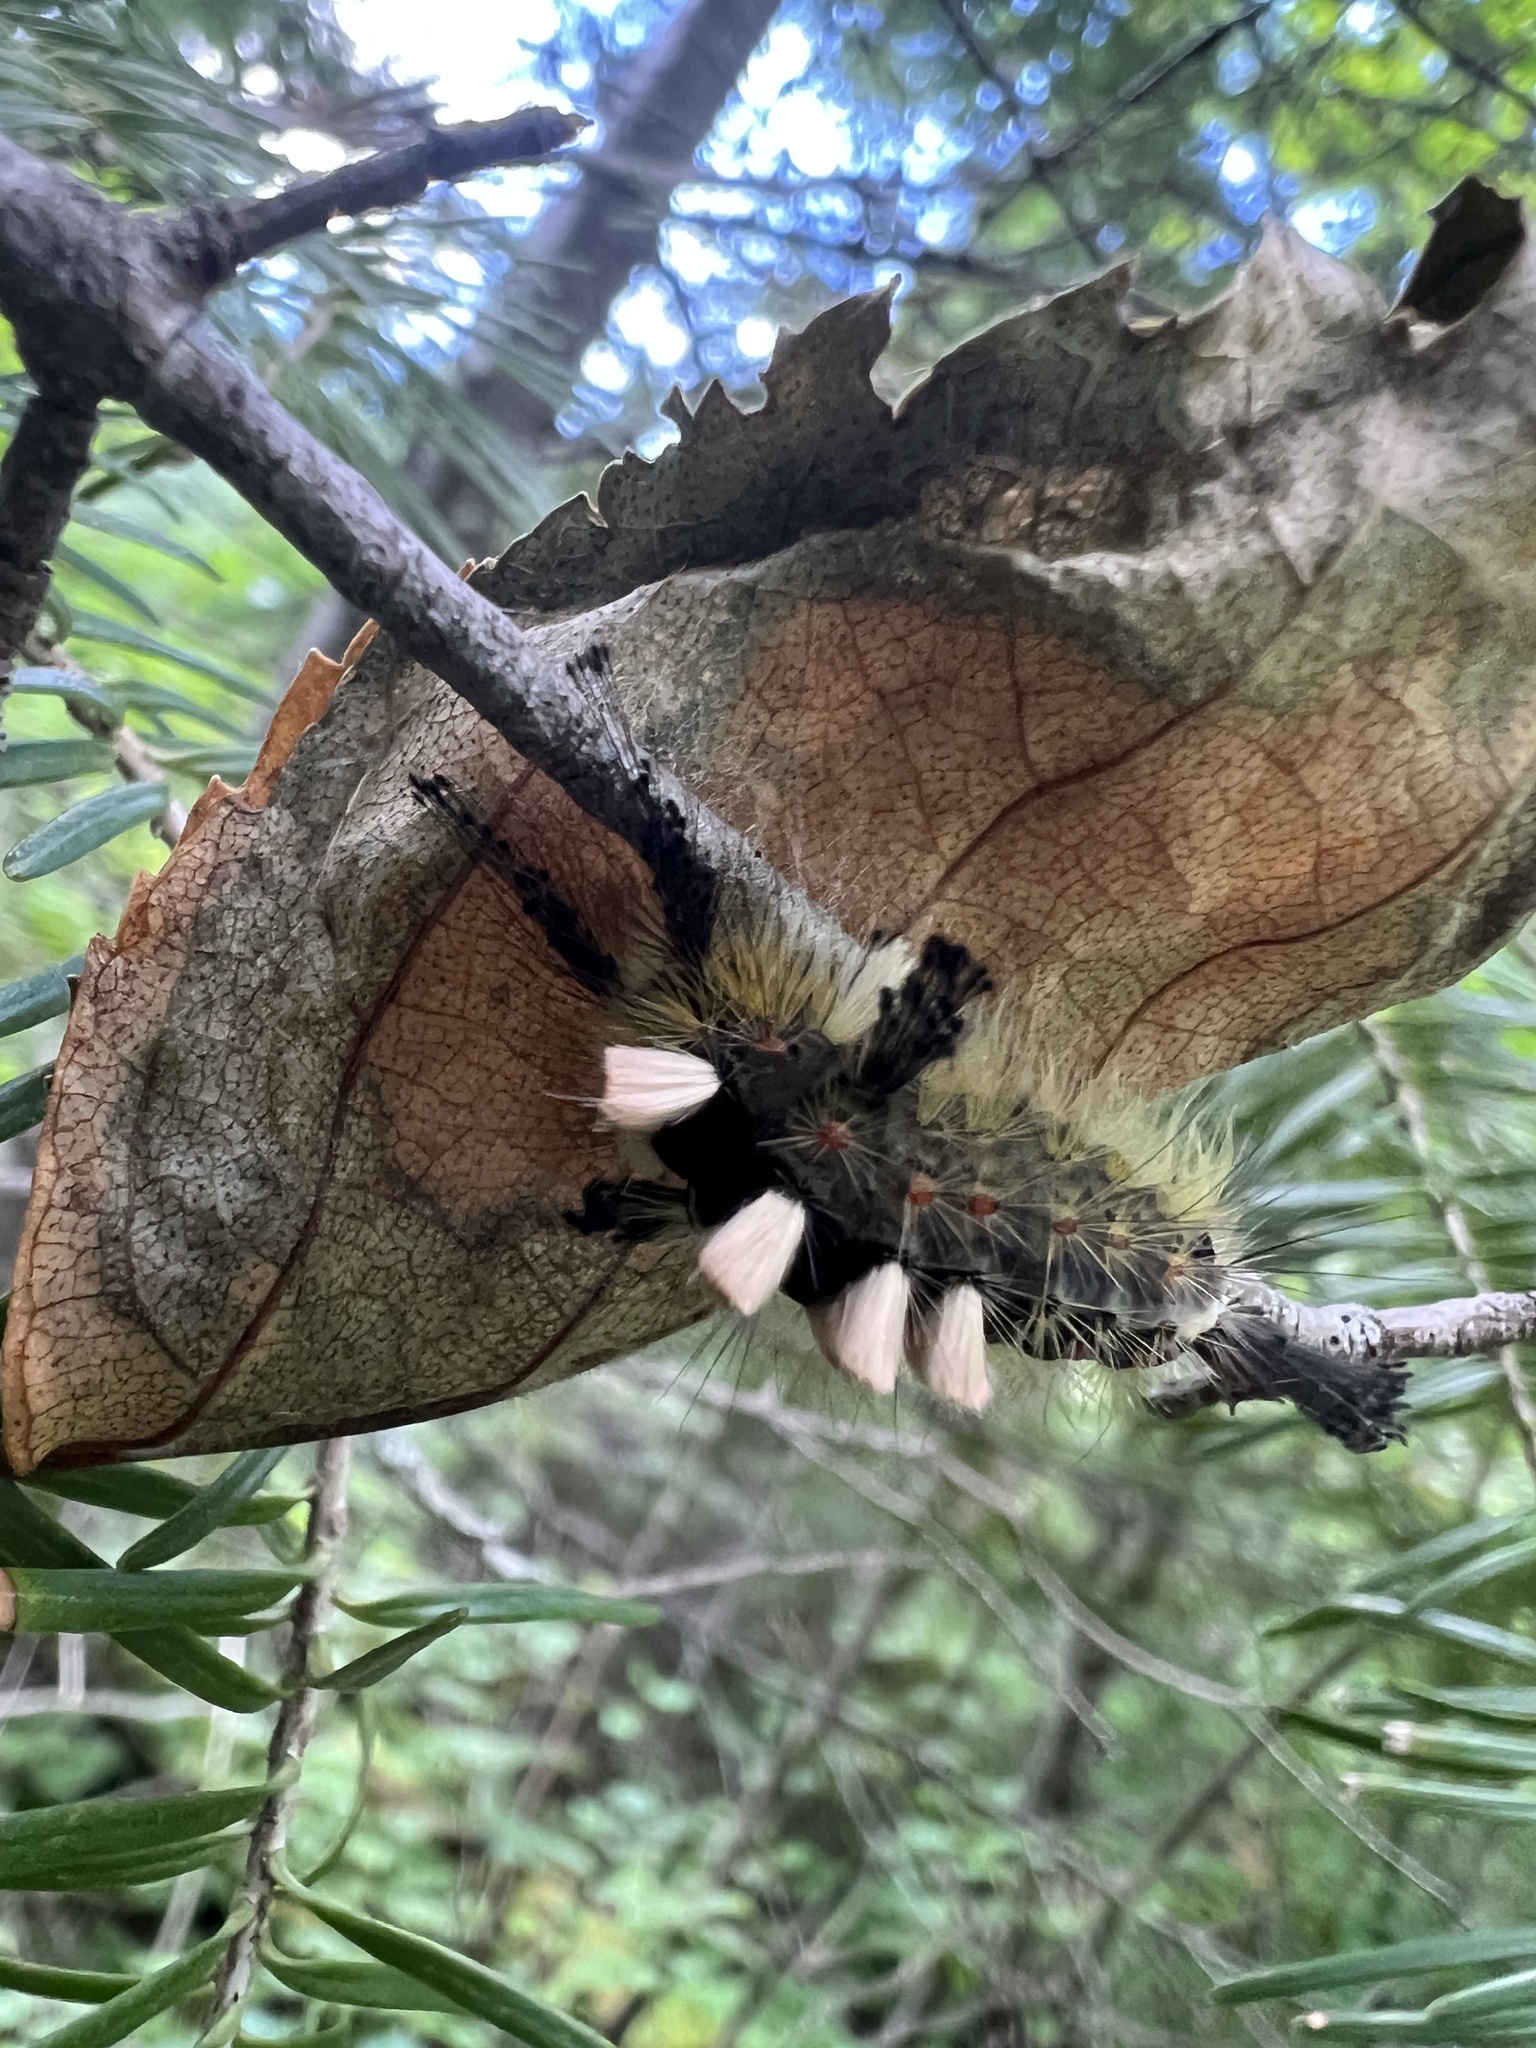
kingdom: Animalia
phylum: Arthropoda
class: Insecta
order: Lepidoptera
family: Erebidae
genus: Orgyia
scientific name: Orgyia antiqua
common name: Vapourer
